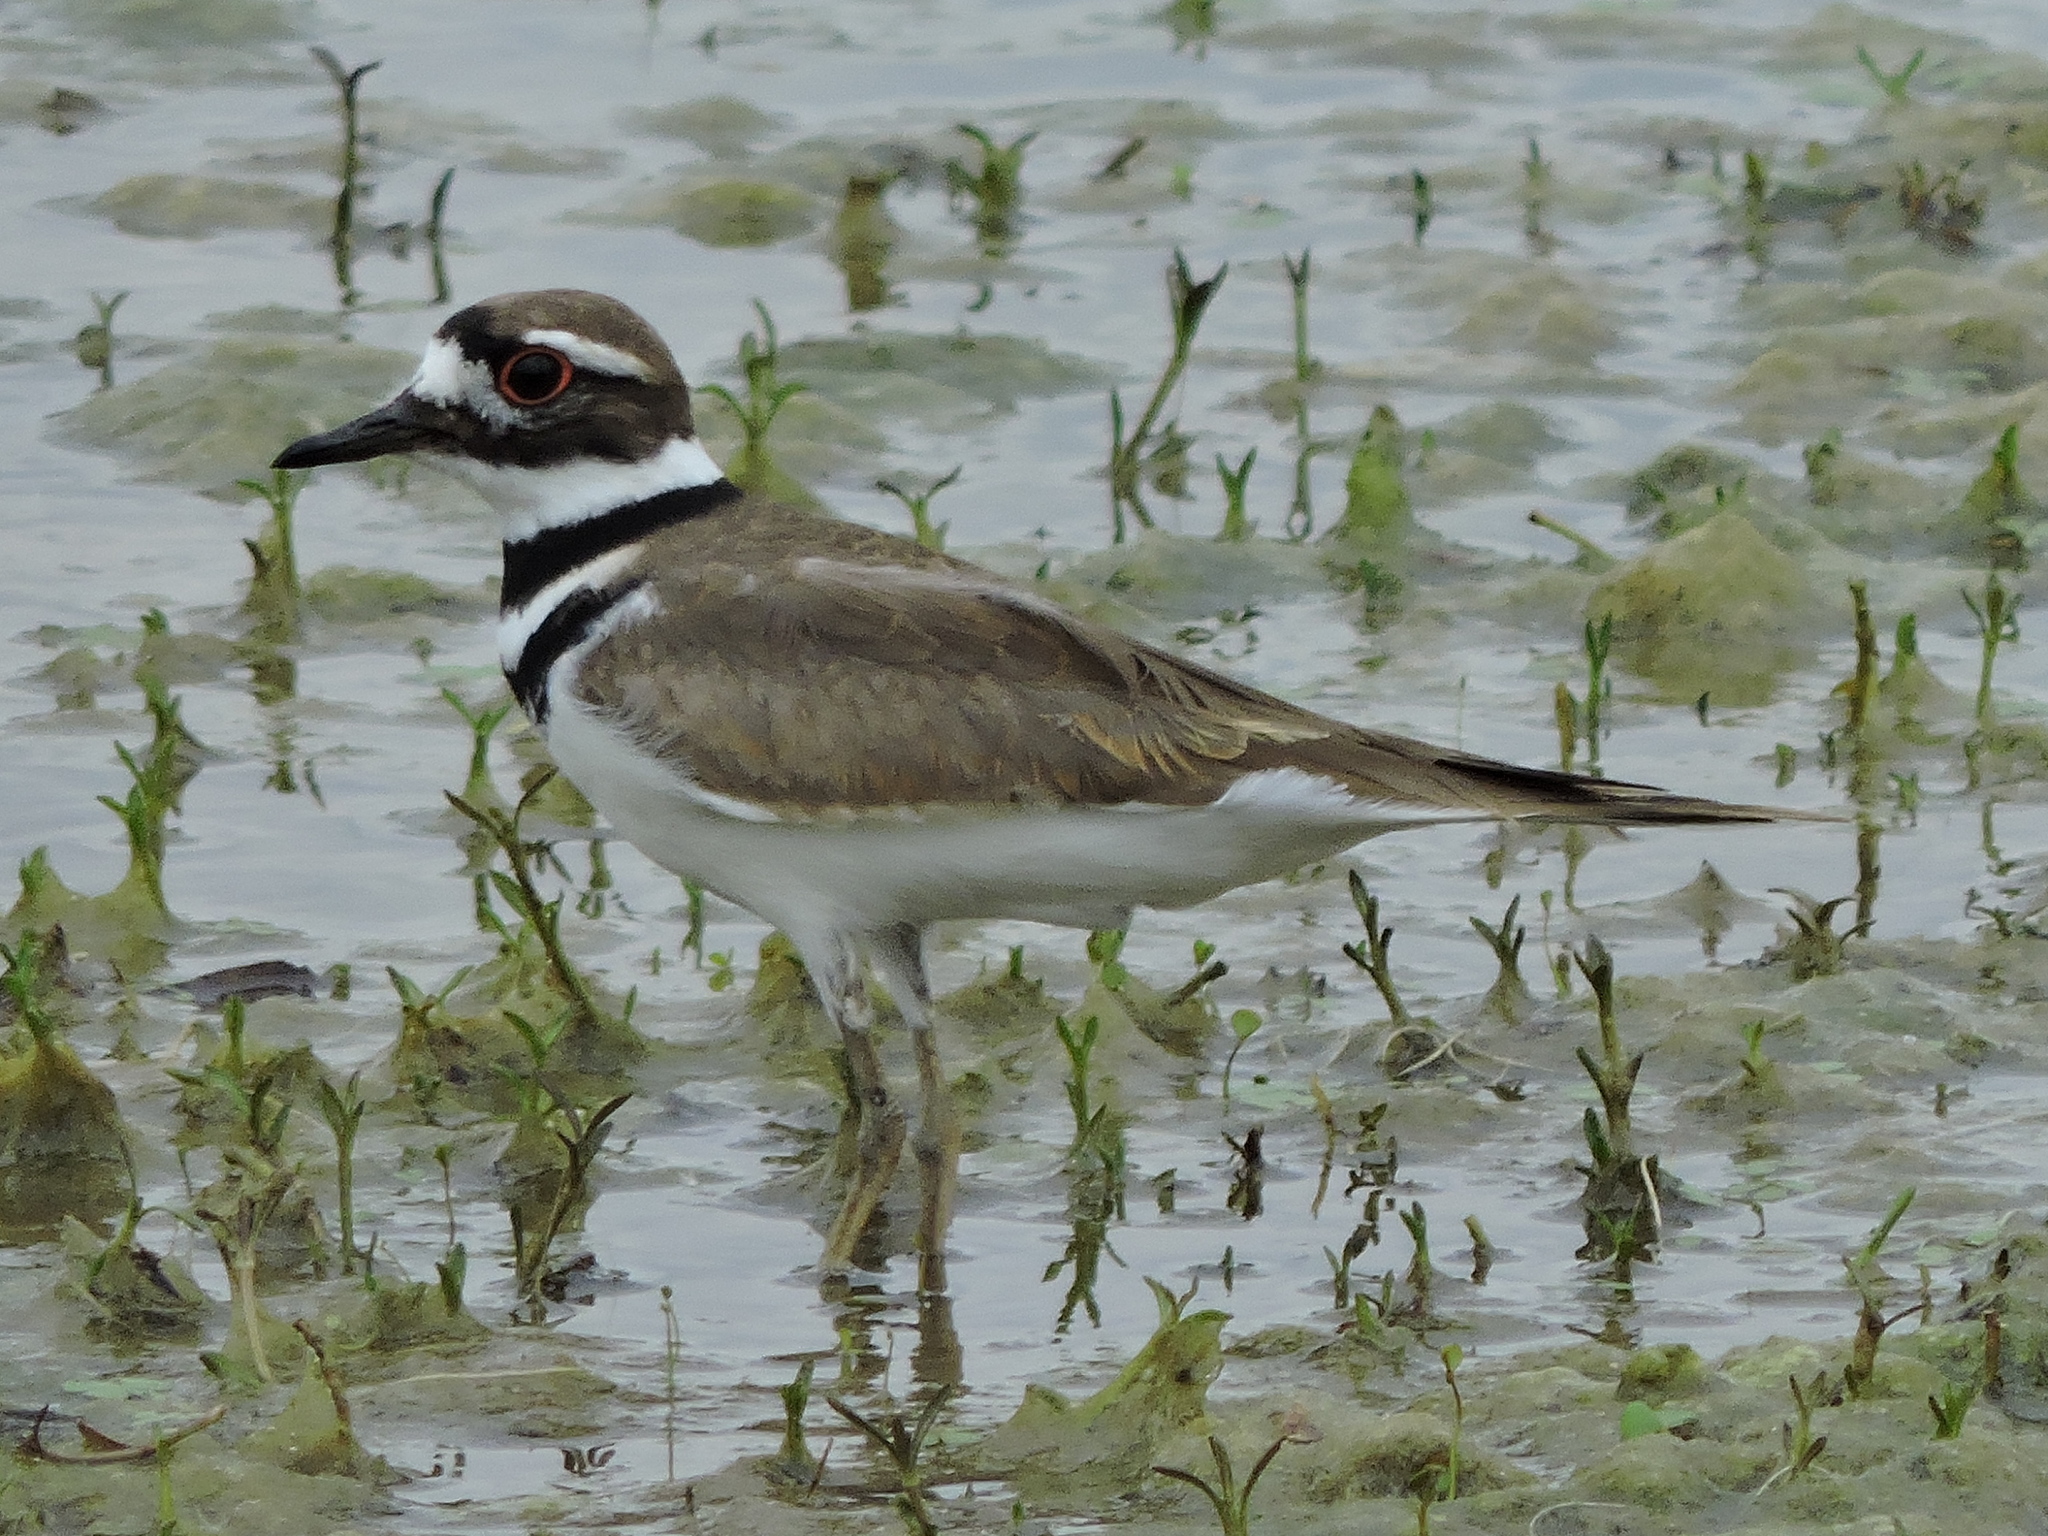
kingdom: Animalia
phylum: Chordata
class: Aves
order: Charadriiformes
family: Charadriidae
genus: Charadrius
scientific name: Charadrius vociferus
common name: Killdeer
